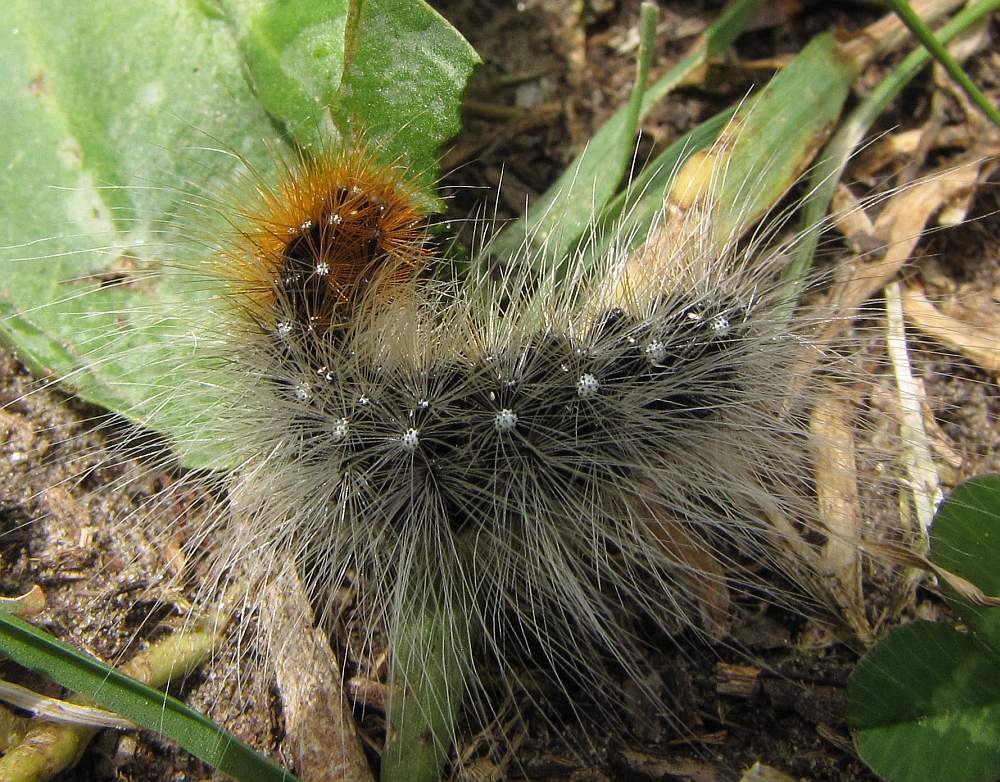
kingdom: Animalia
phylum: Arthropoda
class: Insecta
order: Lepidoptera
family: Erebidae
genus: Arctia
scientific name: Arctia caja
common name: Garden tiger
